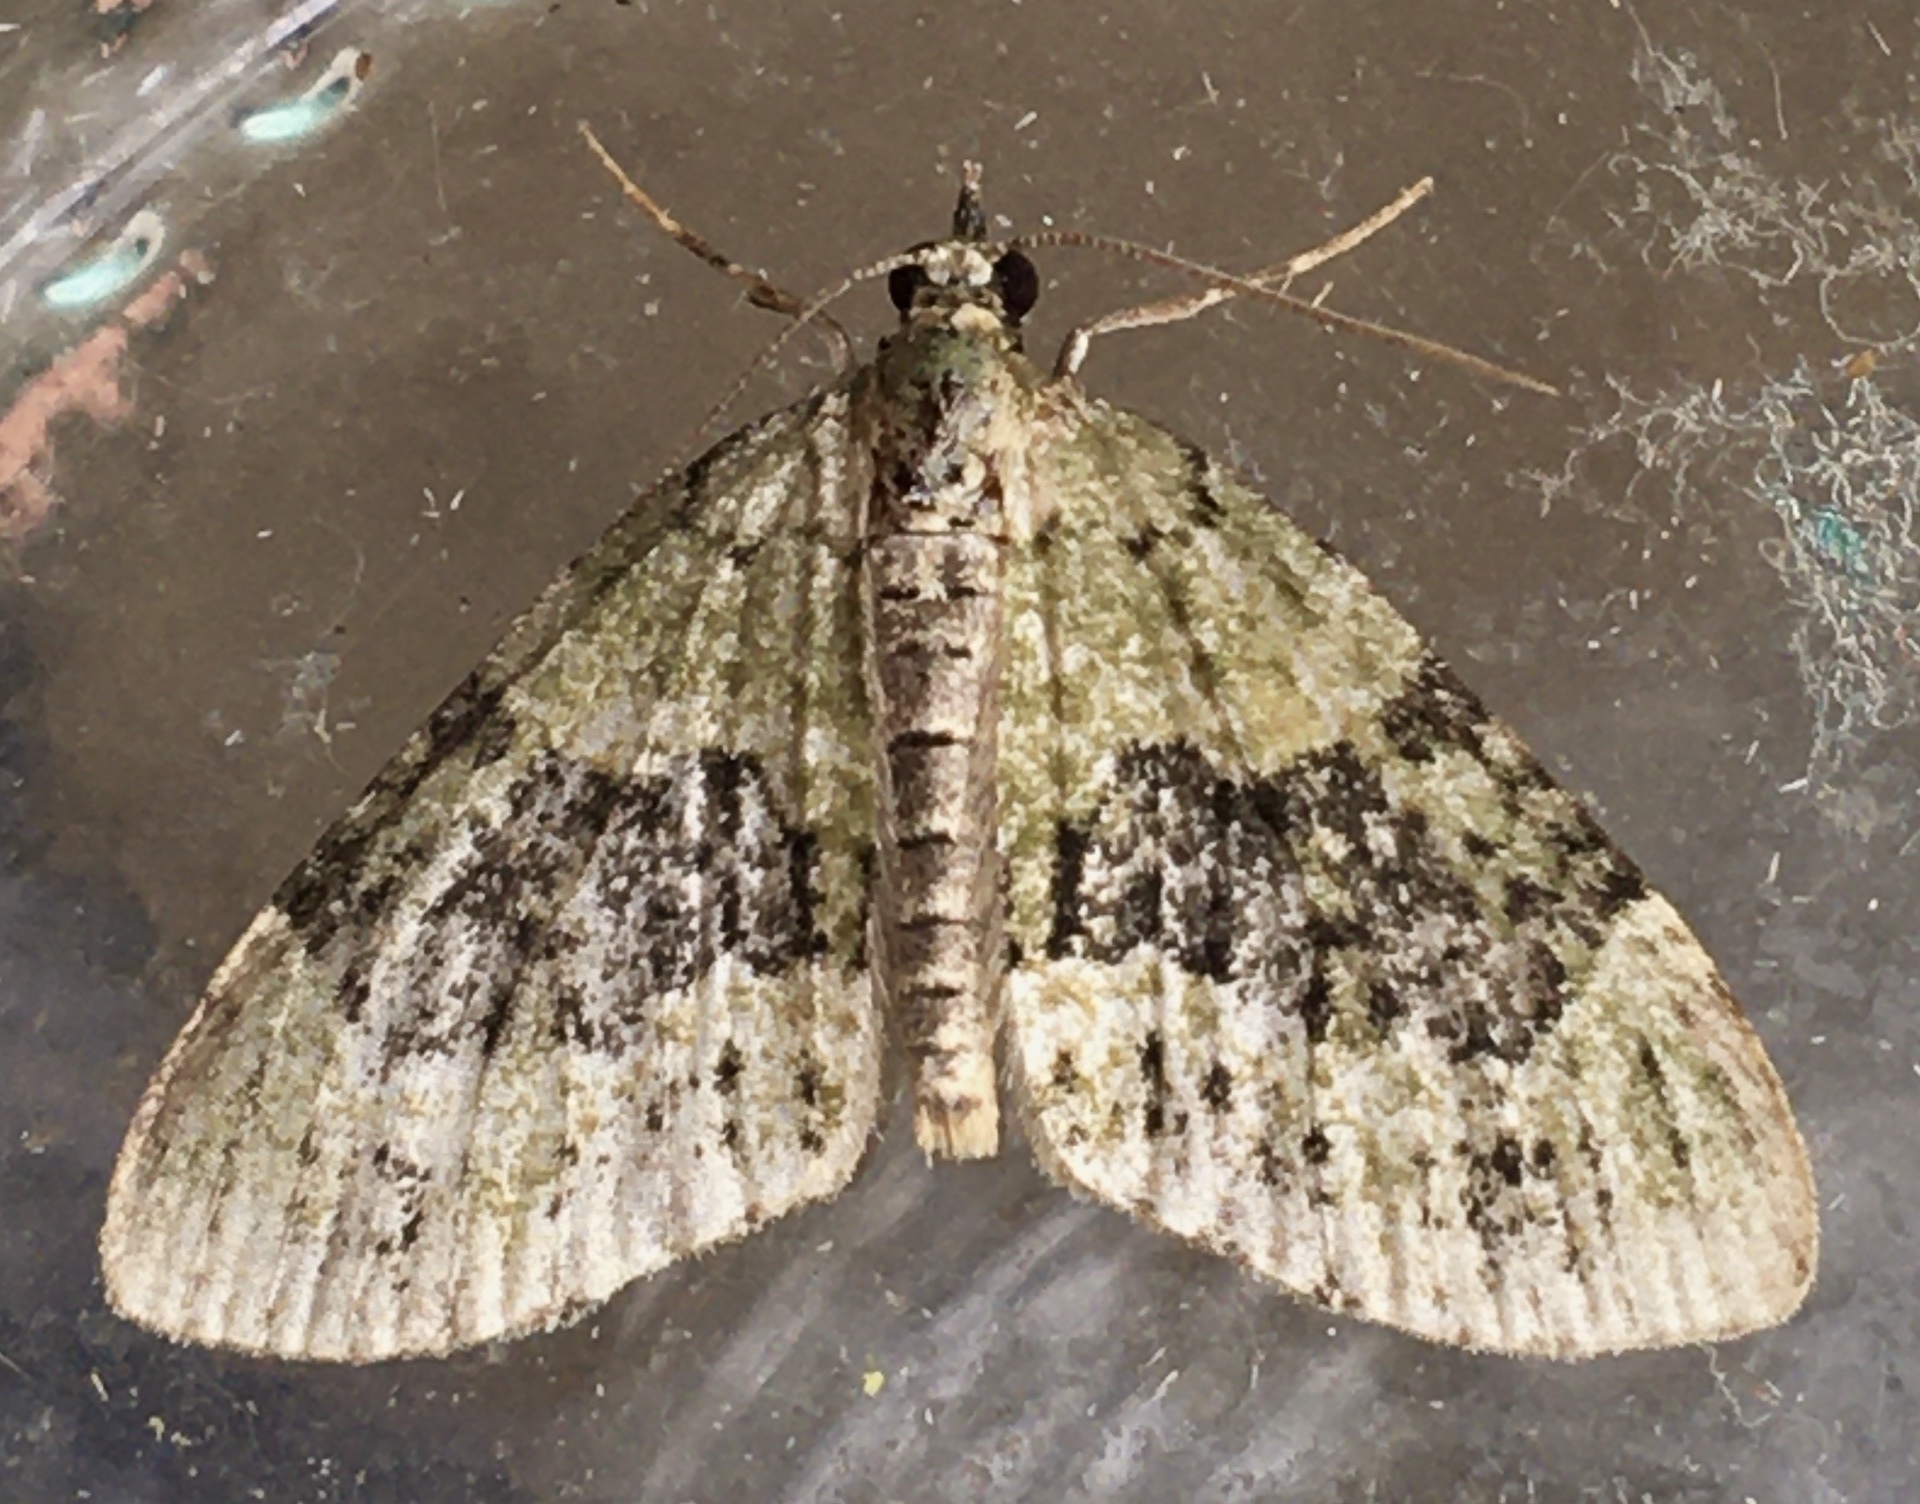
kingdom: Animalia
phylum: Arthropoda
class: Insecta
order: Lepidoptera
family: Geometridae
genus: Acasis
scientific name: Acasis viretata
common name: Yellow-barred brindle
